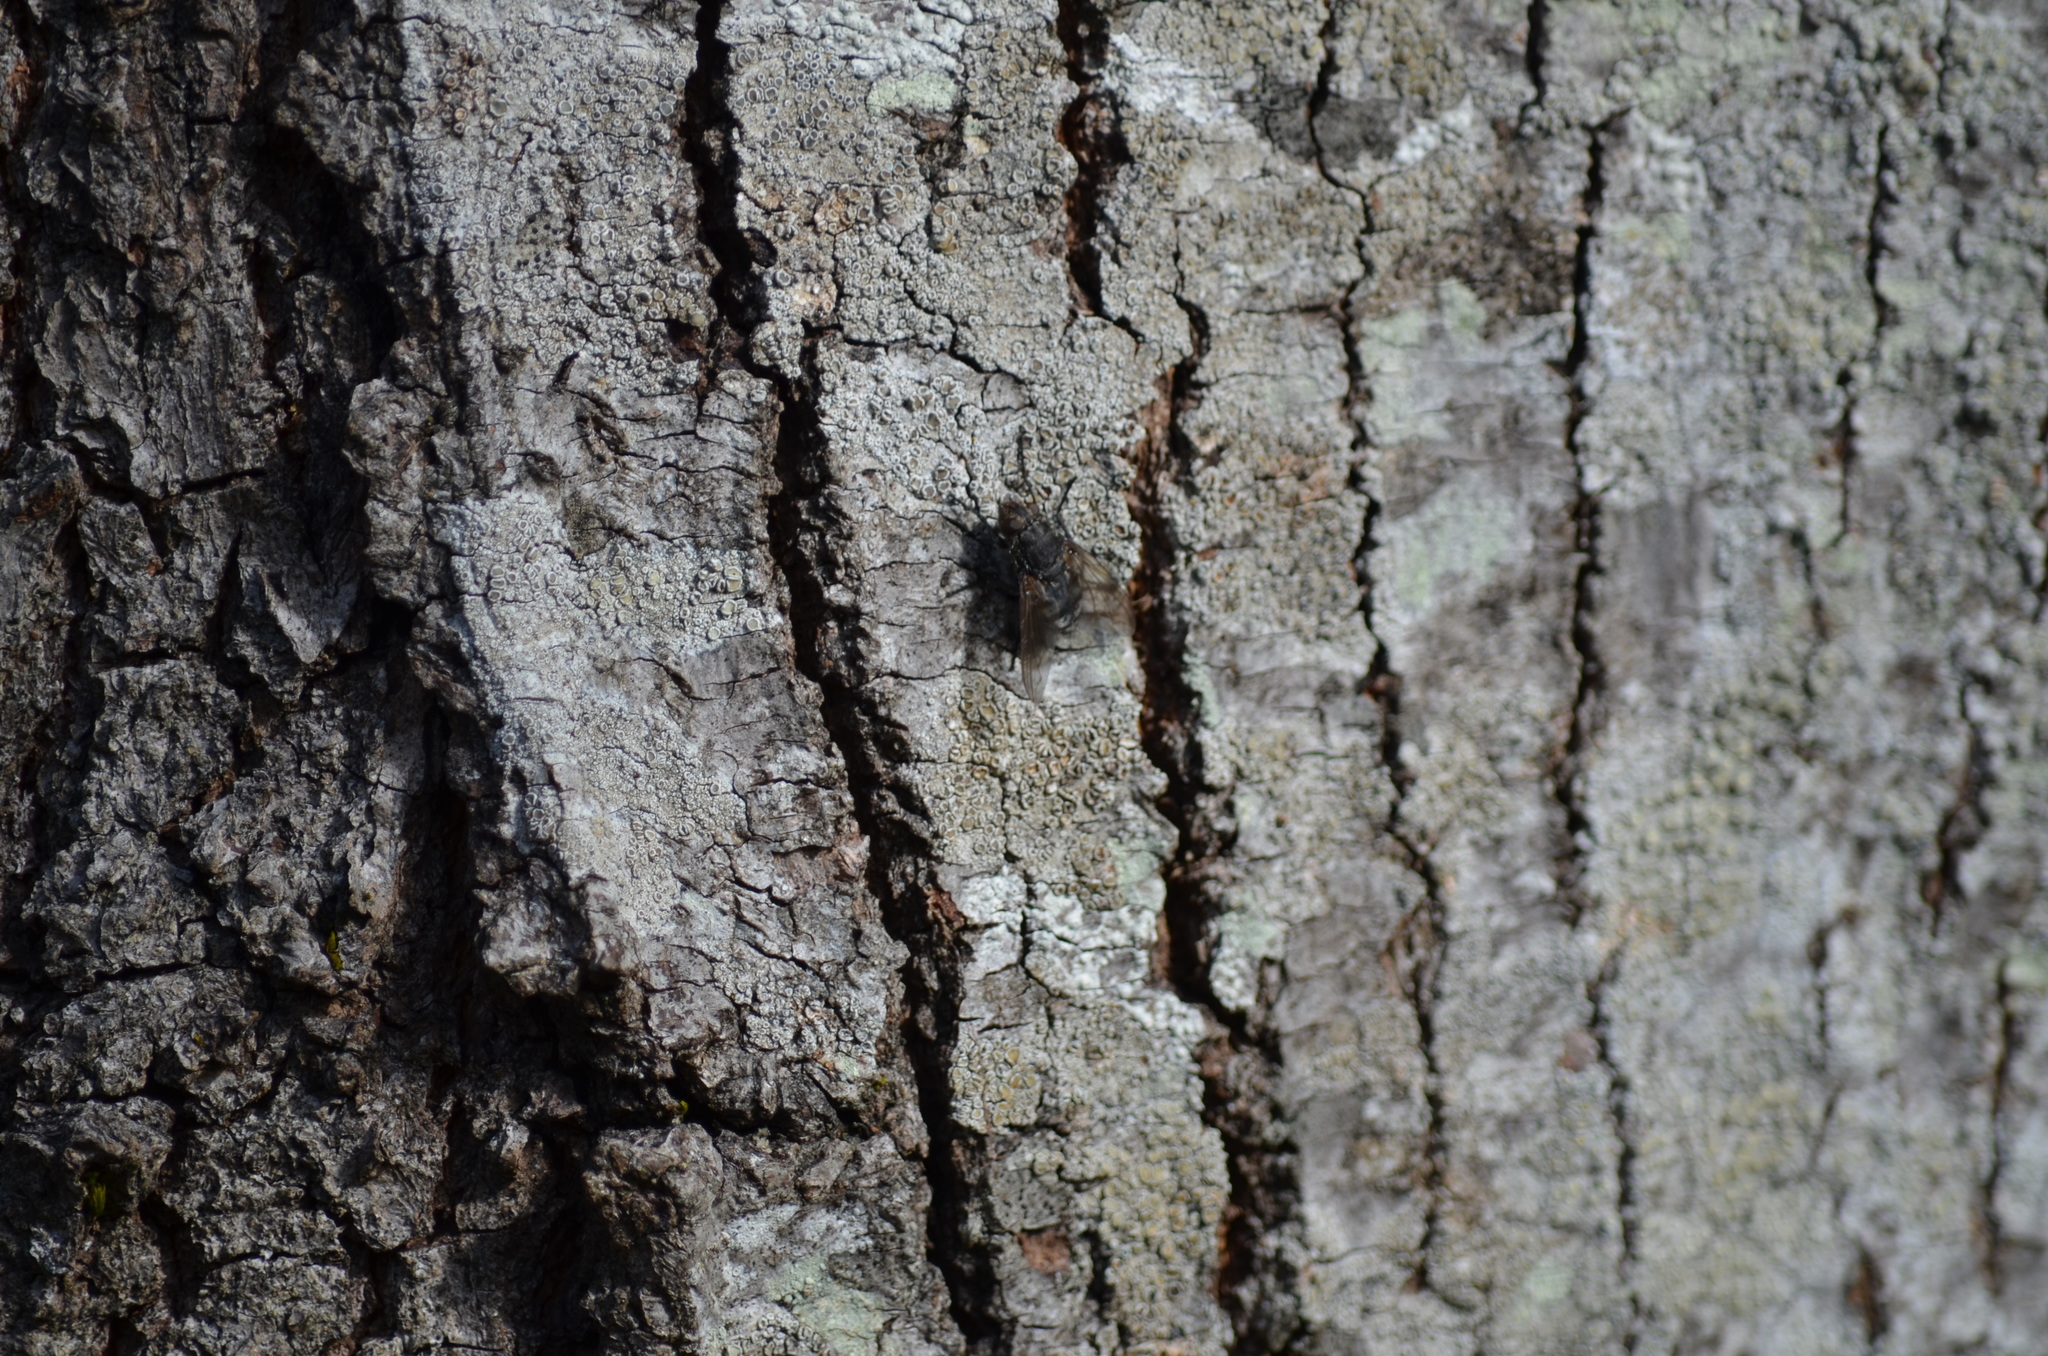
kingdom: Animalia
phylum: Arthropoda
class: Insecta
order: Diptera
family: Polleniidae
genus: Pollenia
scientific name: Pollenia vagabunda
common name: Vagabund cluster fly
